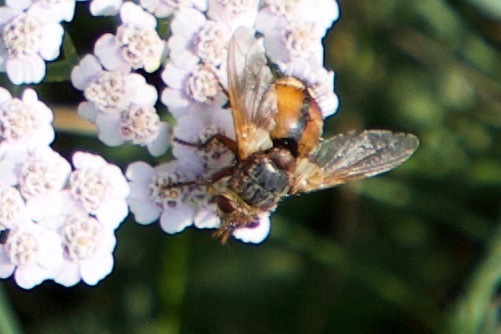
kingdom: Animalia
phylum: Arthropoda
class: Insecta
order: Diptera
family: Tachinidae
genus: Tachina
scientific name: Tachina fera
